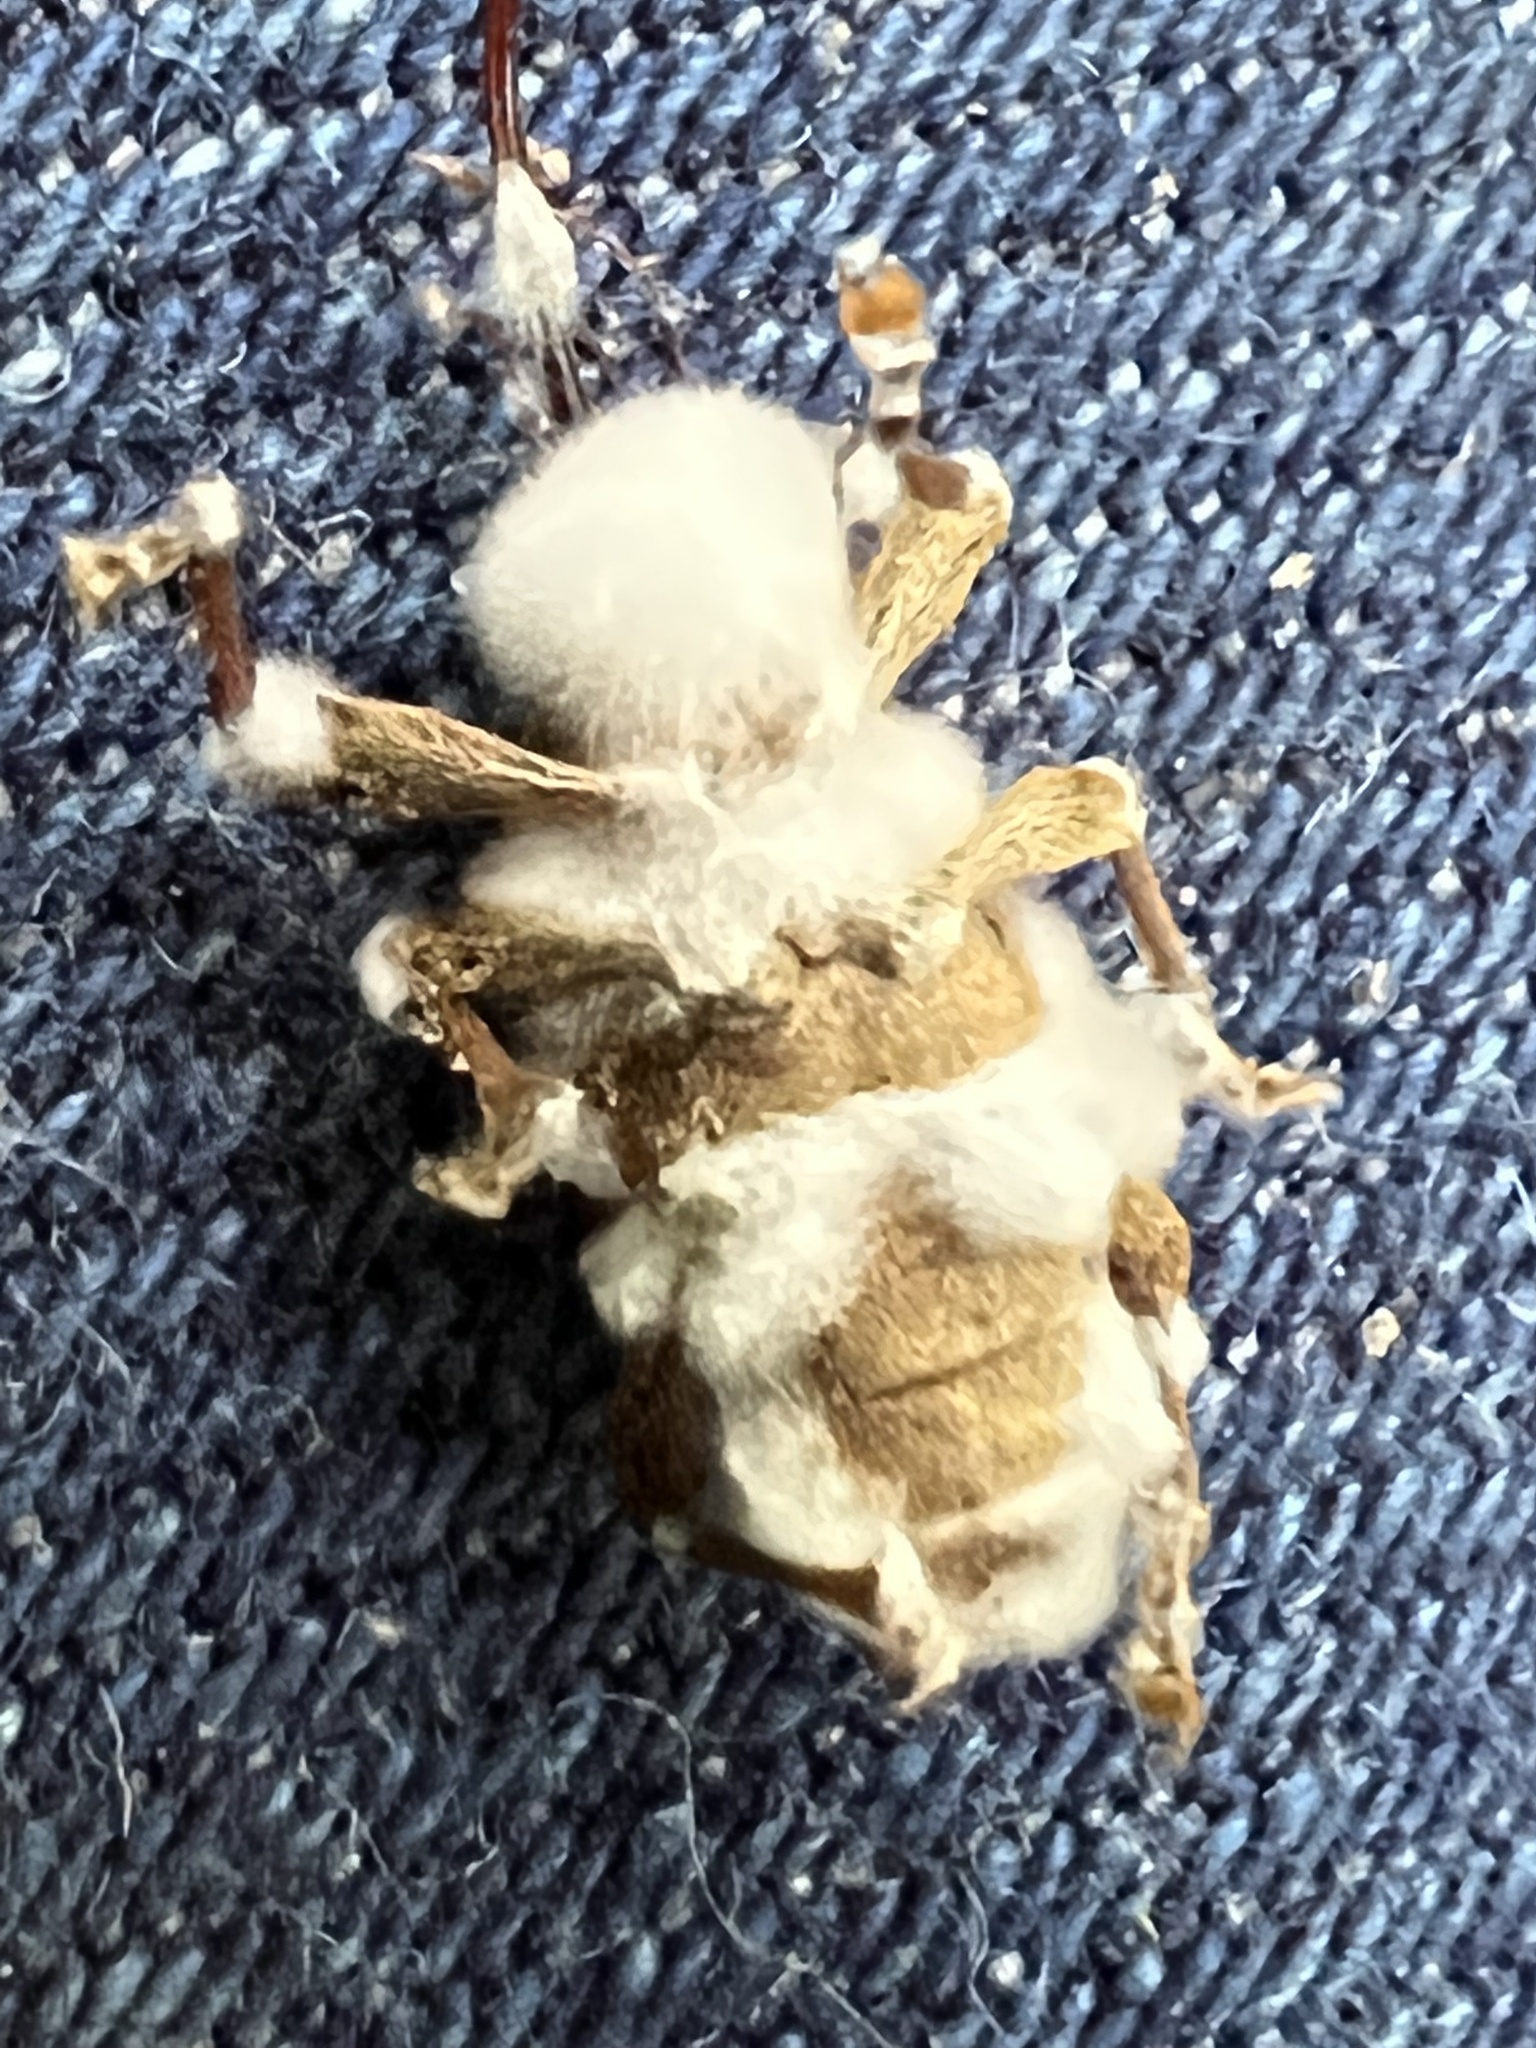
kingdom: Fungi
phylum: Ascomycota
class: Sordariomycetes
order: Hypocreales
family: Cordycipitaceae
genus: Beauveria
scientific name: Beauveria bassiana
